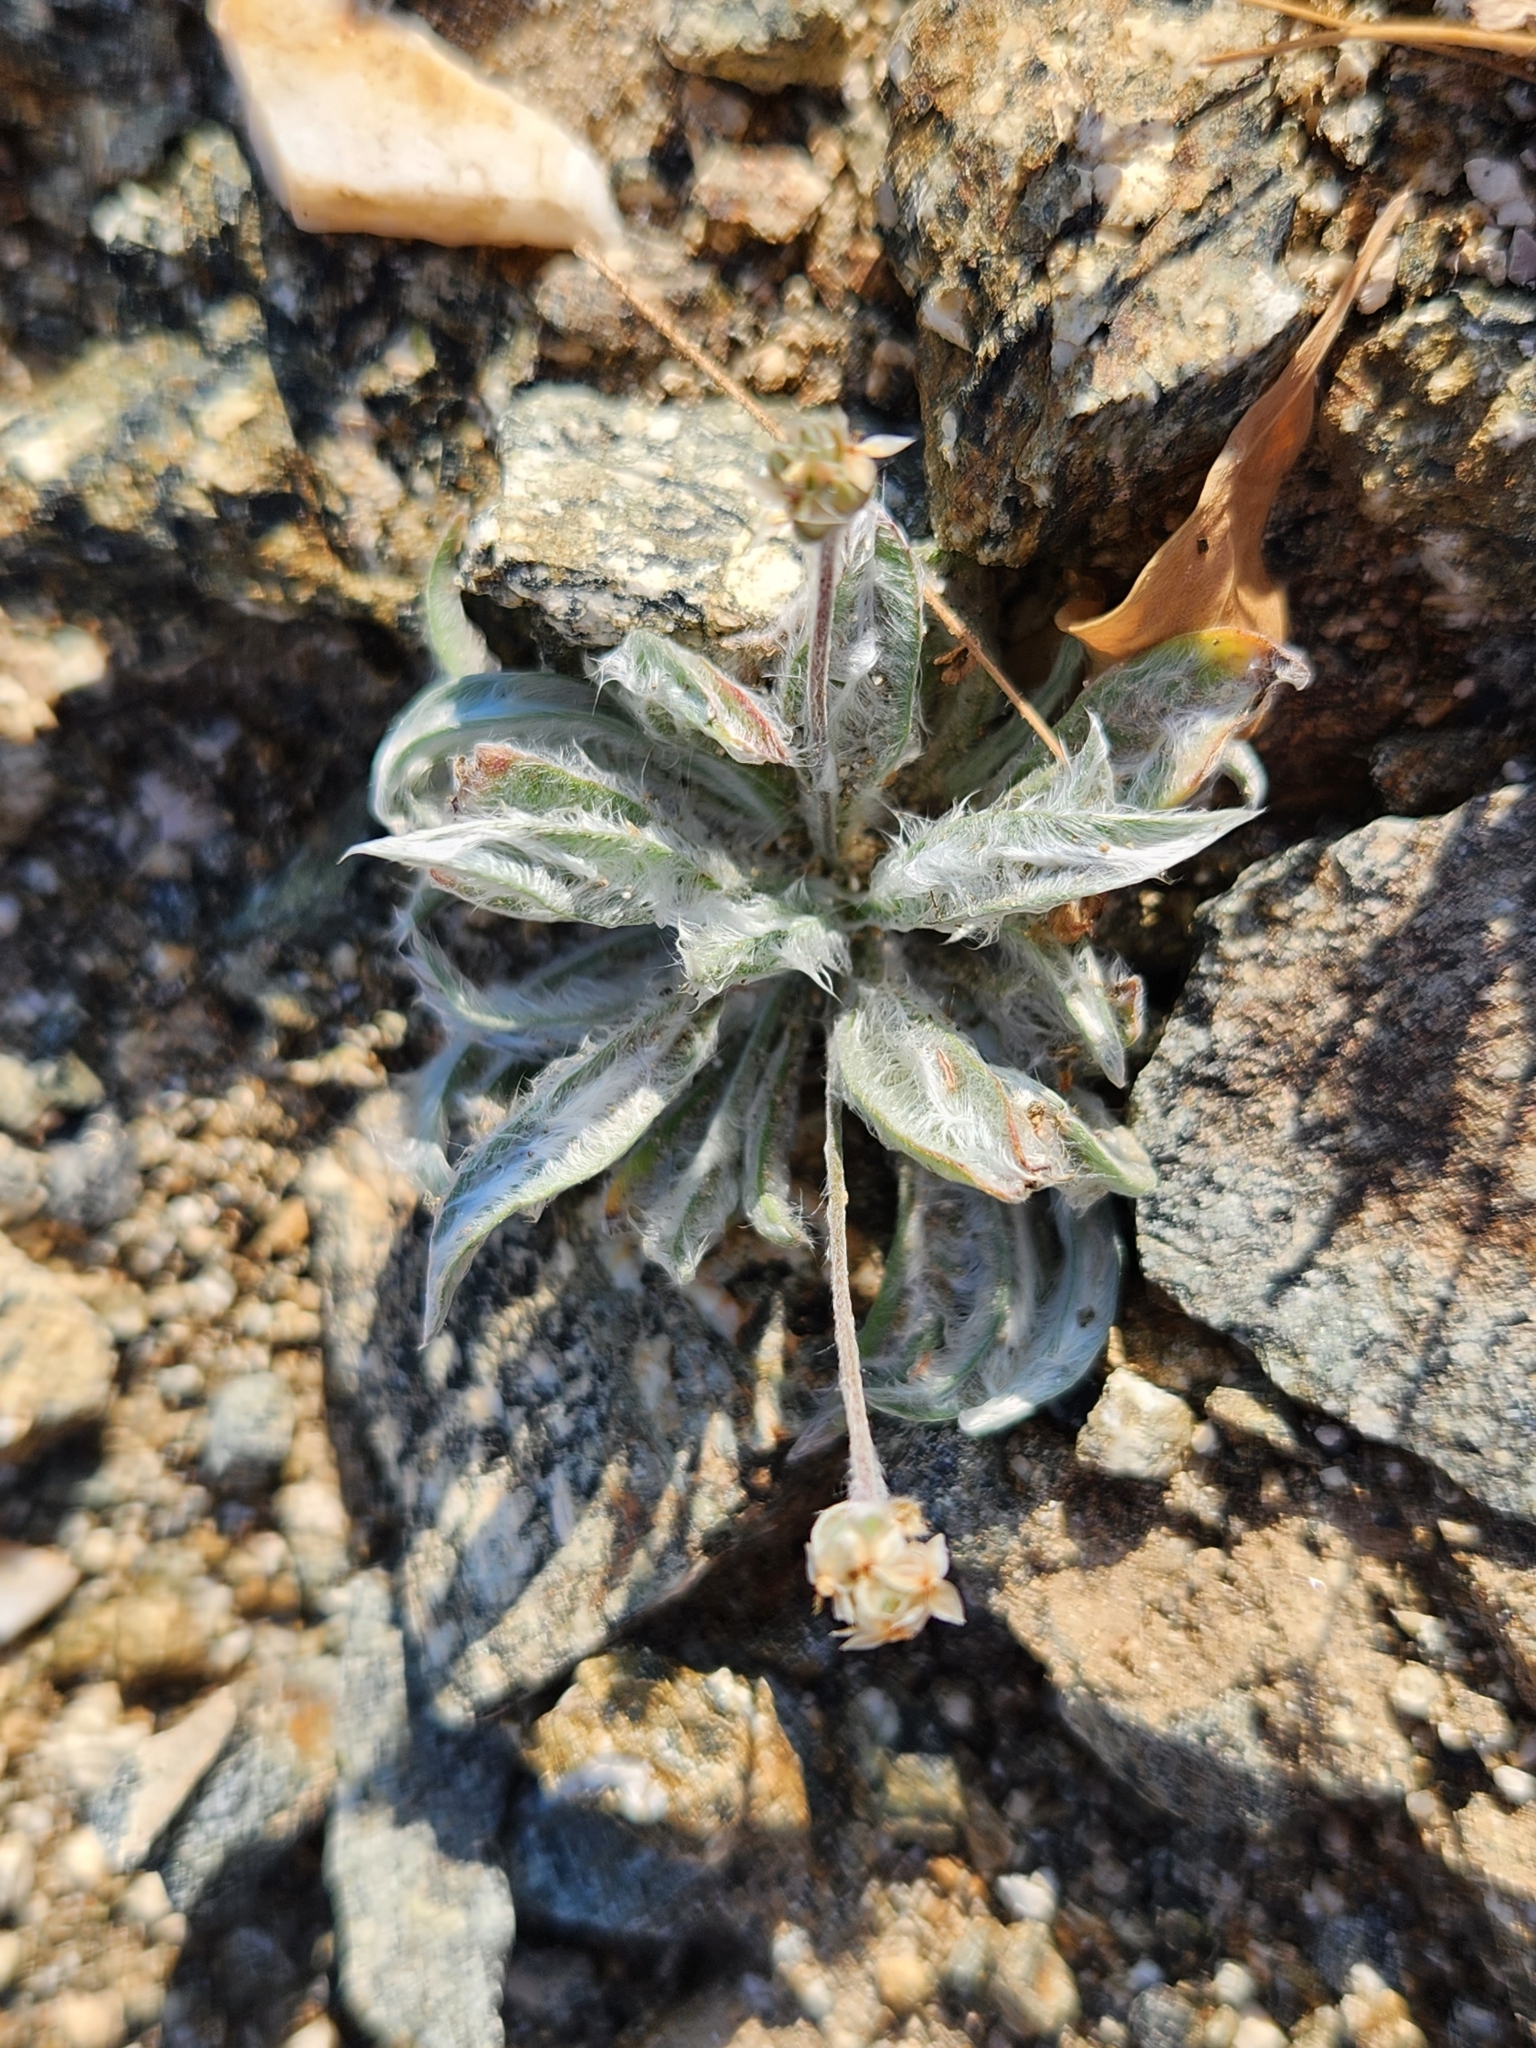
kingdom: Plantae
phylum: Tracheophyta
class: Magnoliopsida
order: Lamiales
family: Plantaginaceae
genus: Plantago
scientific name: Plantago ovata
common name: Blond plantain
